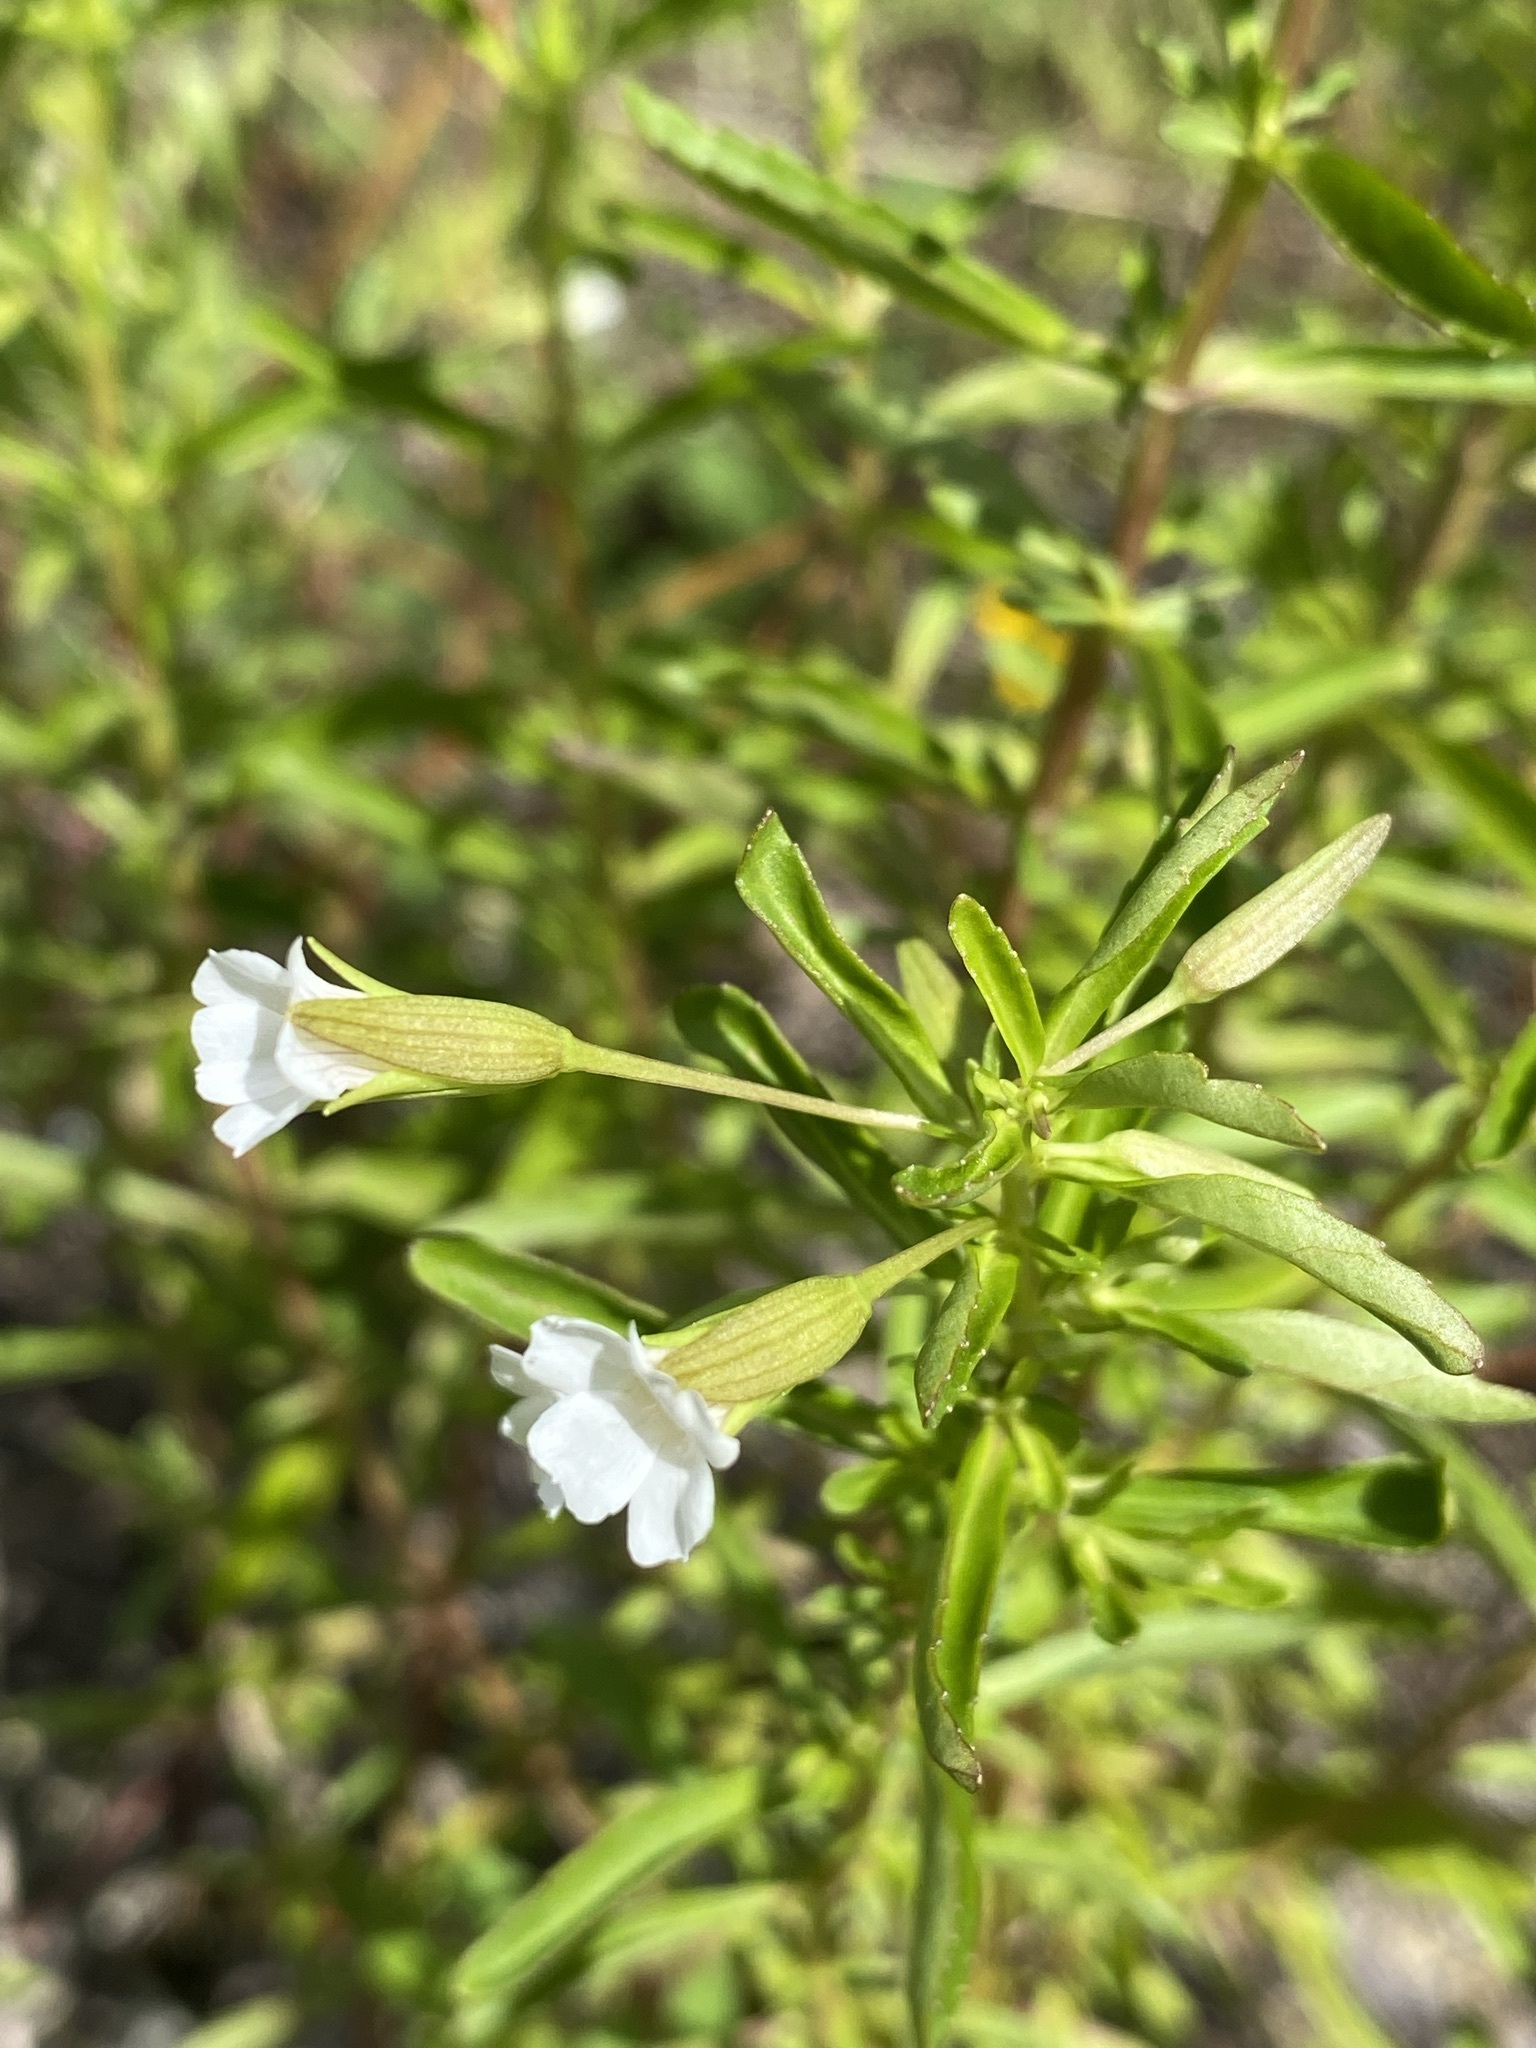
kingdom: Plantae
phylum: Tracheophyta
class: Magnoliopsida
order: Lamiales
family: Plantaginaceae
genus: Mecardonia
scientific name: Mecardonia acuminata
